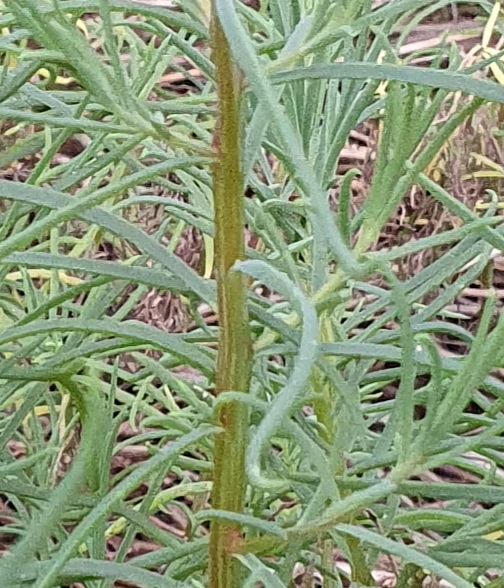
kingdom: Plantae
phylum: Tracheophyta
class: Magnoliopsida
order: Caryophyllales
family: Amaranthaceae
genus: Suaeda
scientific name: Suaeda australis
